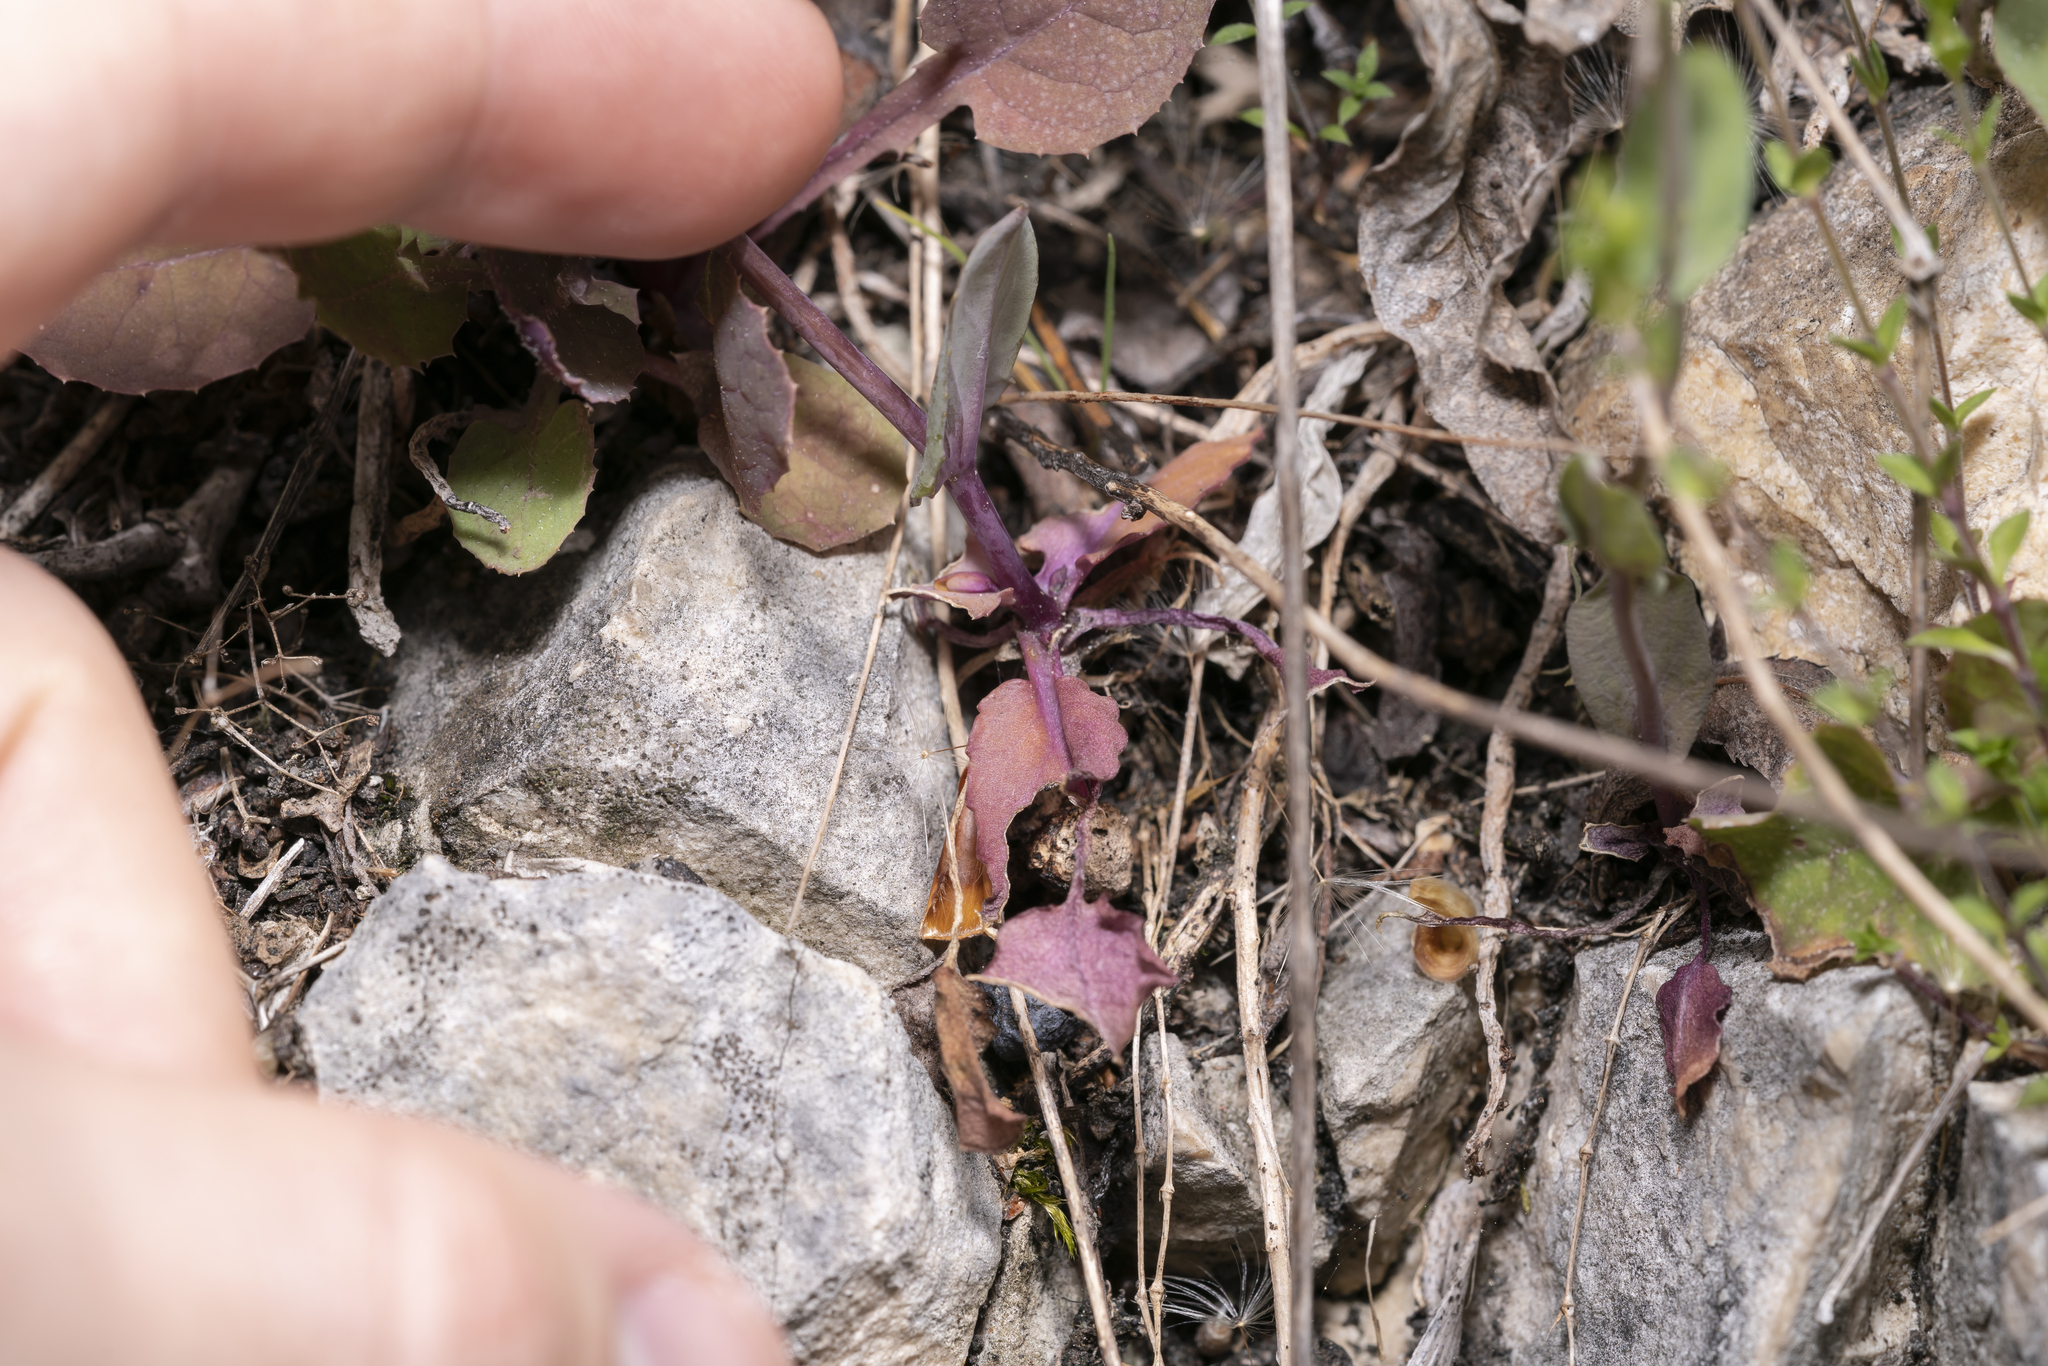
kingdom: Plantae
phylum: Tracheophyta
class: Magnoliopsida
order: Brassicales
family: Brassicaceae
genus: Noccaea
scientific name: Noccaea perfoliata
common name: Perfoliate pennycress
